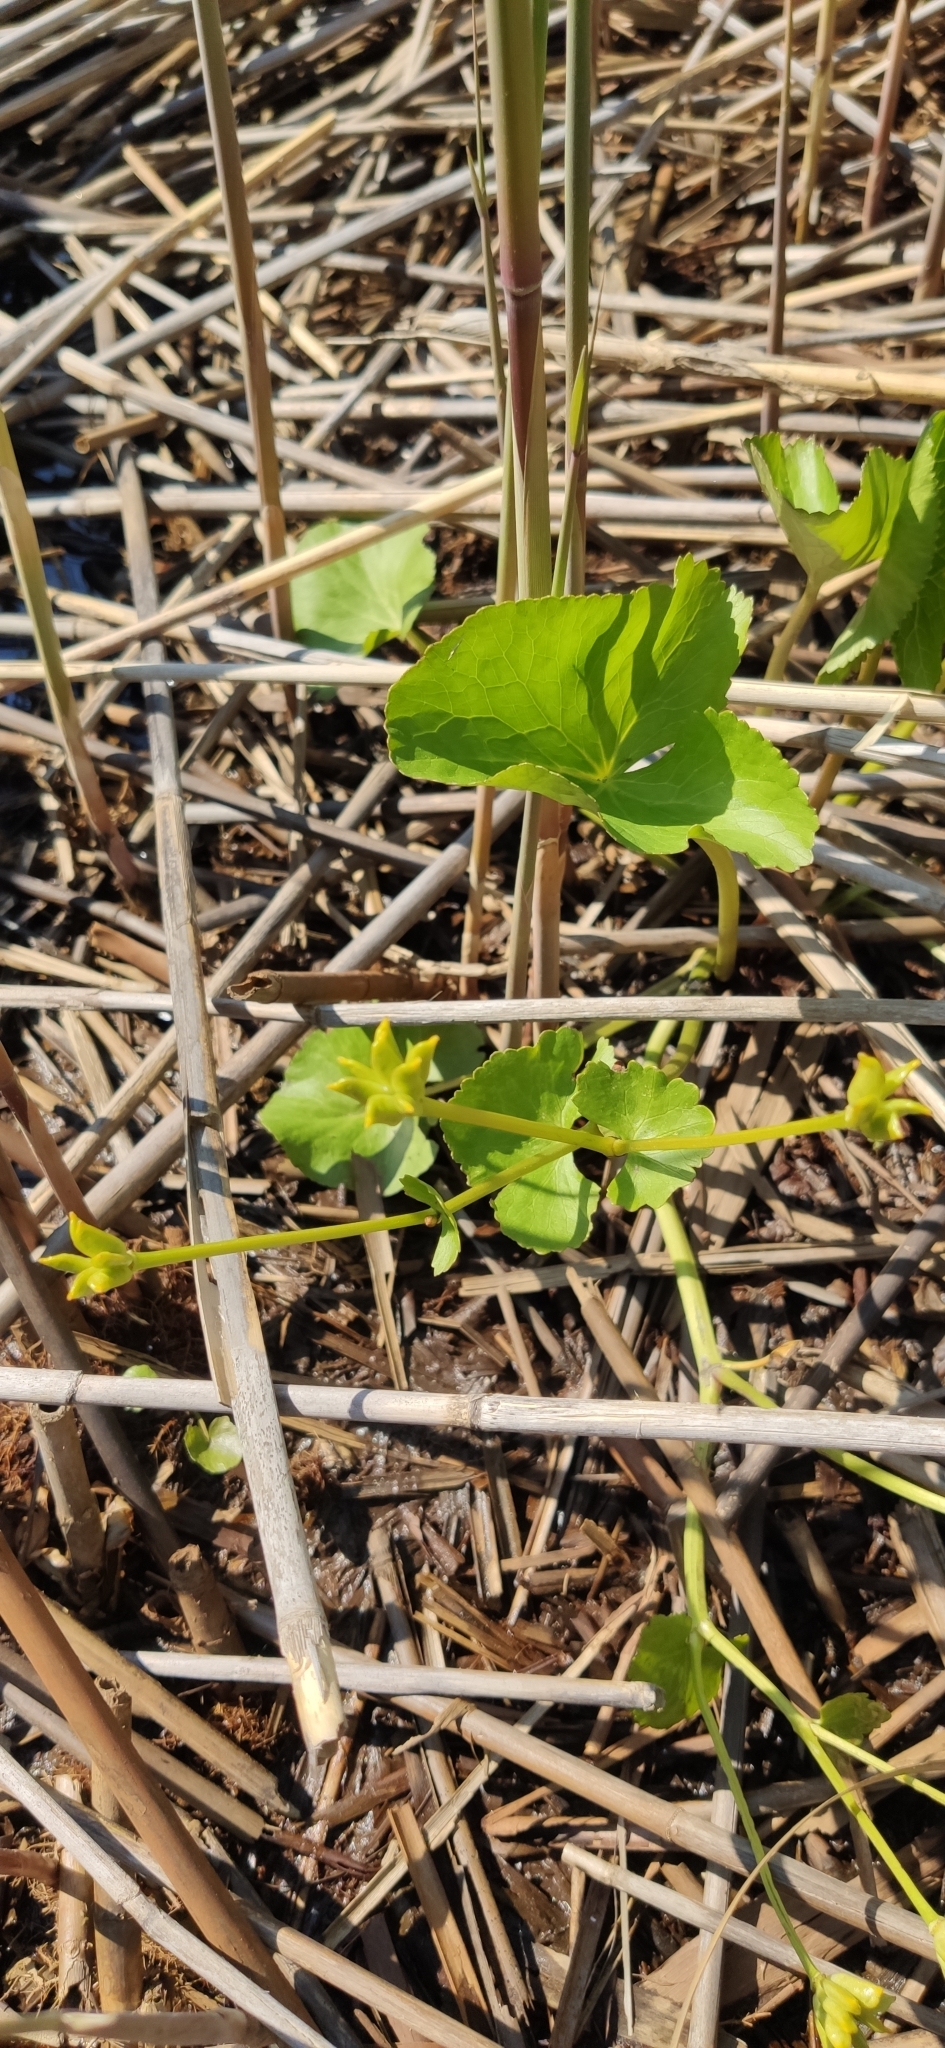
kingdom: Plantae
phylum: Tracheophyta
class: Magnoliopsida
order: Ranunculales
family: Ranunculaceae
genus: Caltha
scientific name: Caltha palustris
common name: Marsh marigold
